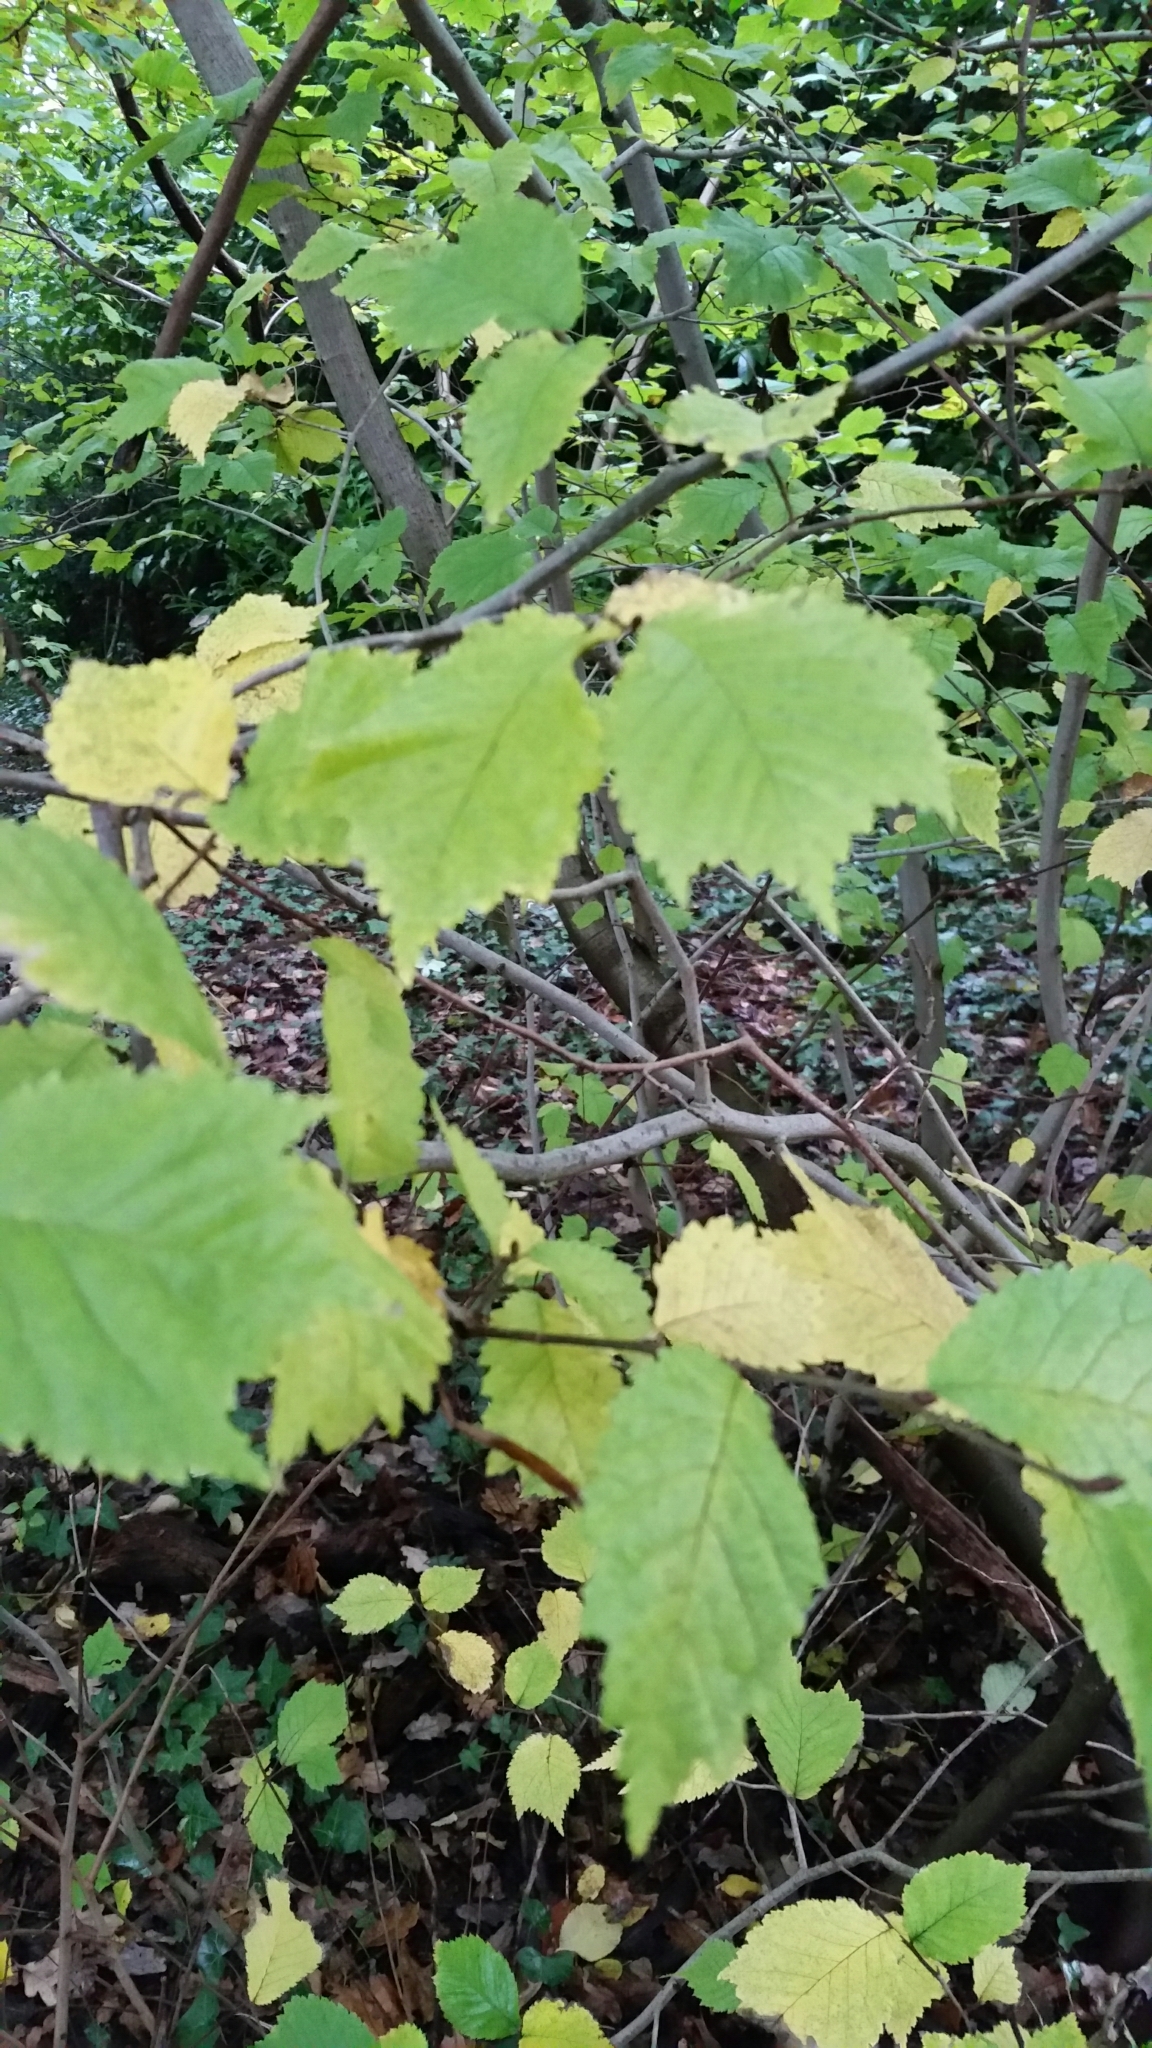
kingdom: Plantae
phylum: Tracheophyta
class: Magnoliopsida
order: Rosales
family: Ulmaceae
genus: Ulmus
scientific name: Ulmus glabra
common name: Wych elm
